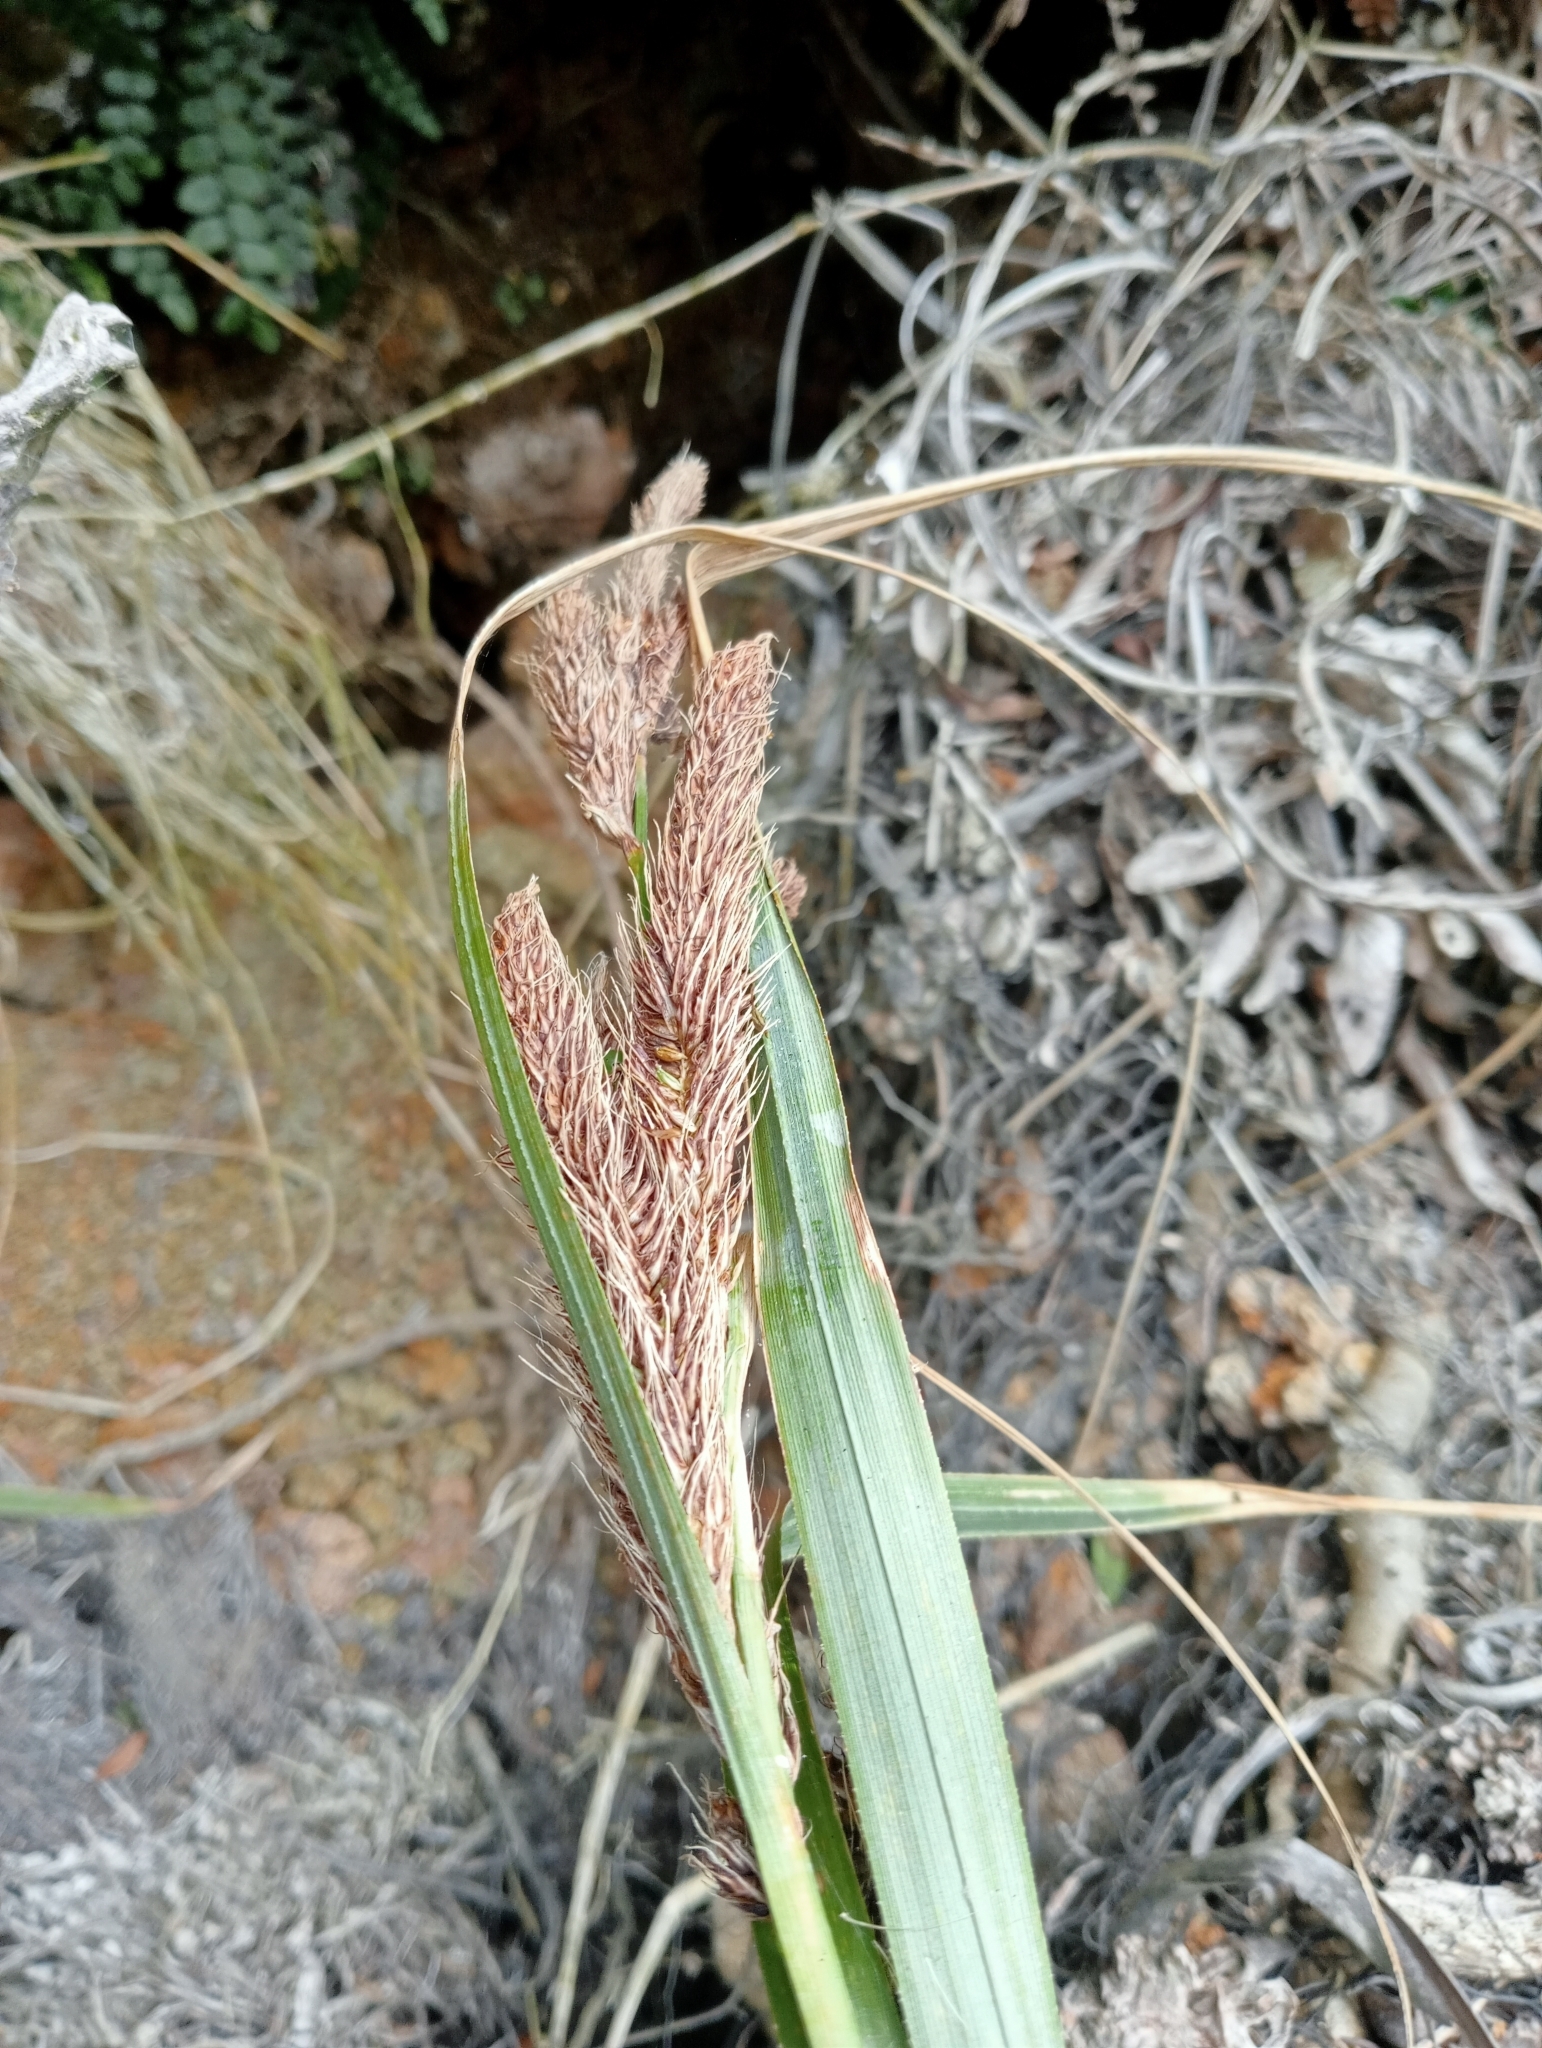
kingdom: Plantae
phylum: Tracheophyta
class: Liliopsida
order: Poales
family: Cyperaceae
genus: Carex
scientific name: Carex trifida
